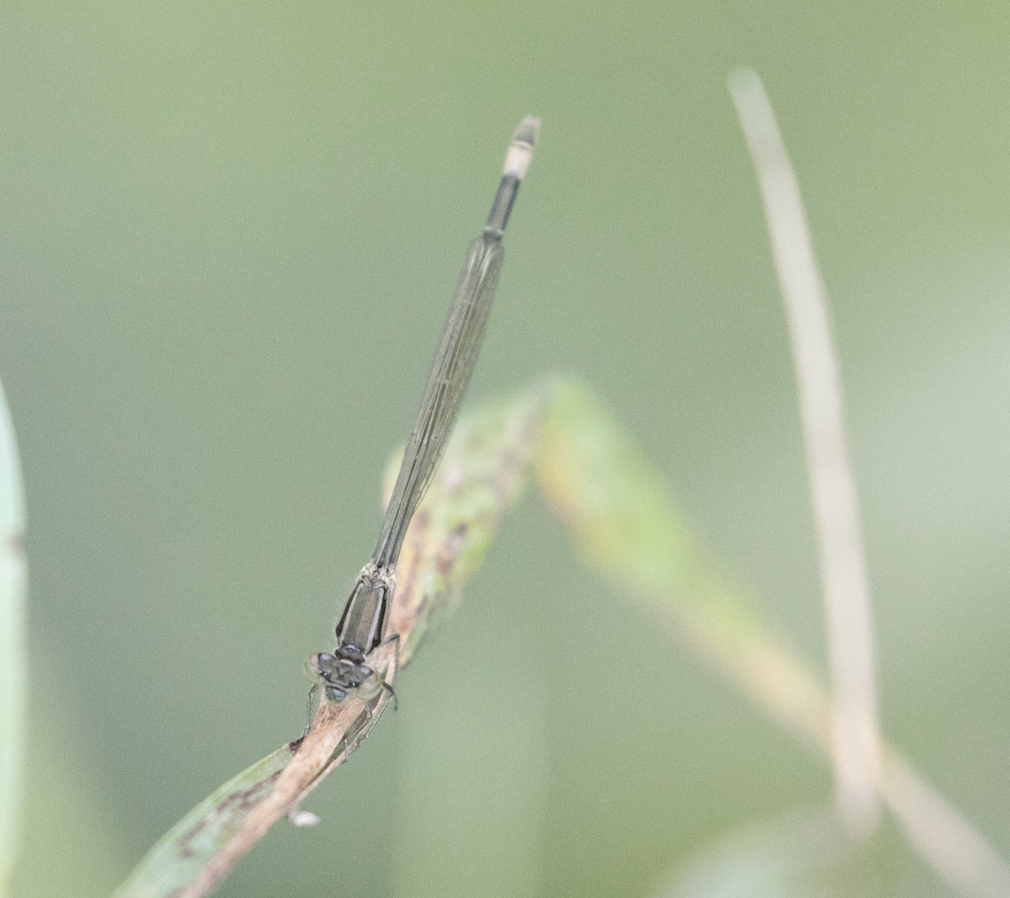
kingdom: Animalia
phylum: Arthropoda
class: Insecta
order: Odonata
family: Coenagrionidae
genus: Ischnura
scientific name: Ischnura elegans
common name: Blue-tailed damselfly
